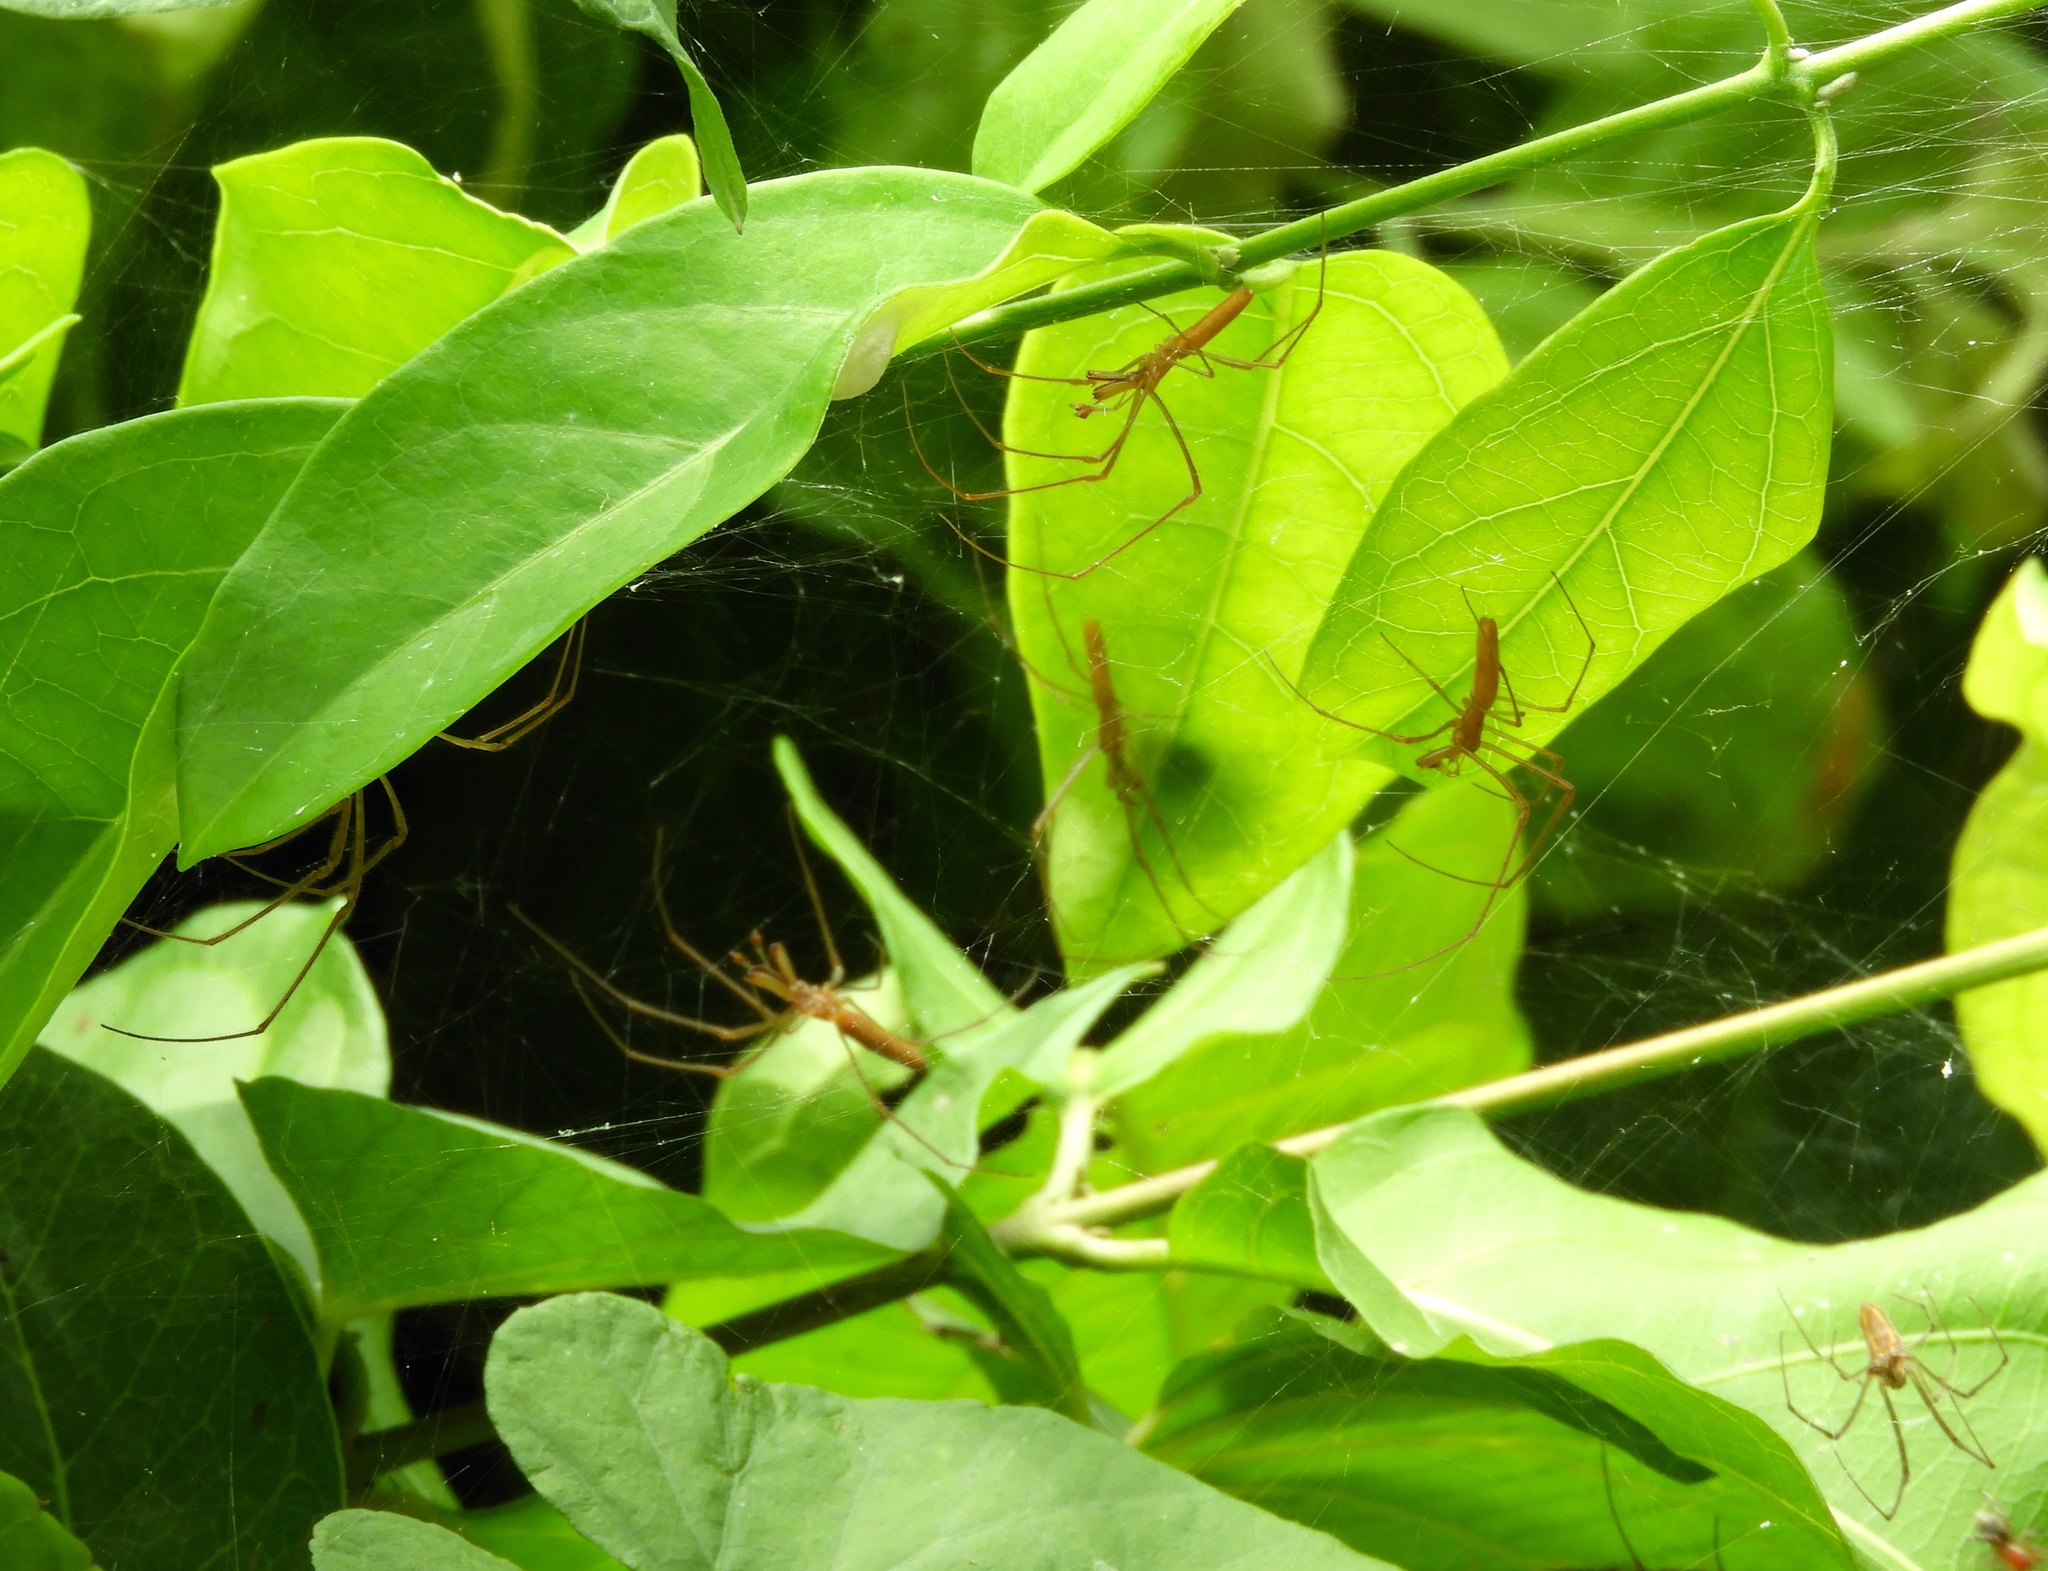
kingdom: Animalia
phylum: Arthropoda
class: Arachnida
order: Araneae
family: Tetragnathidae
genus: Tetragnatha
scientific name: Tetragnatha
